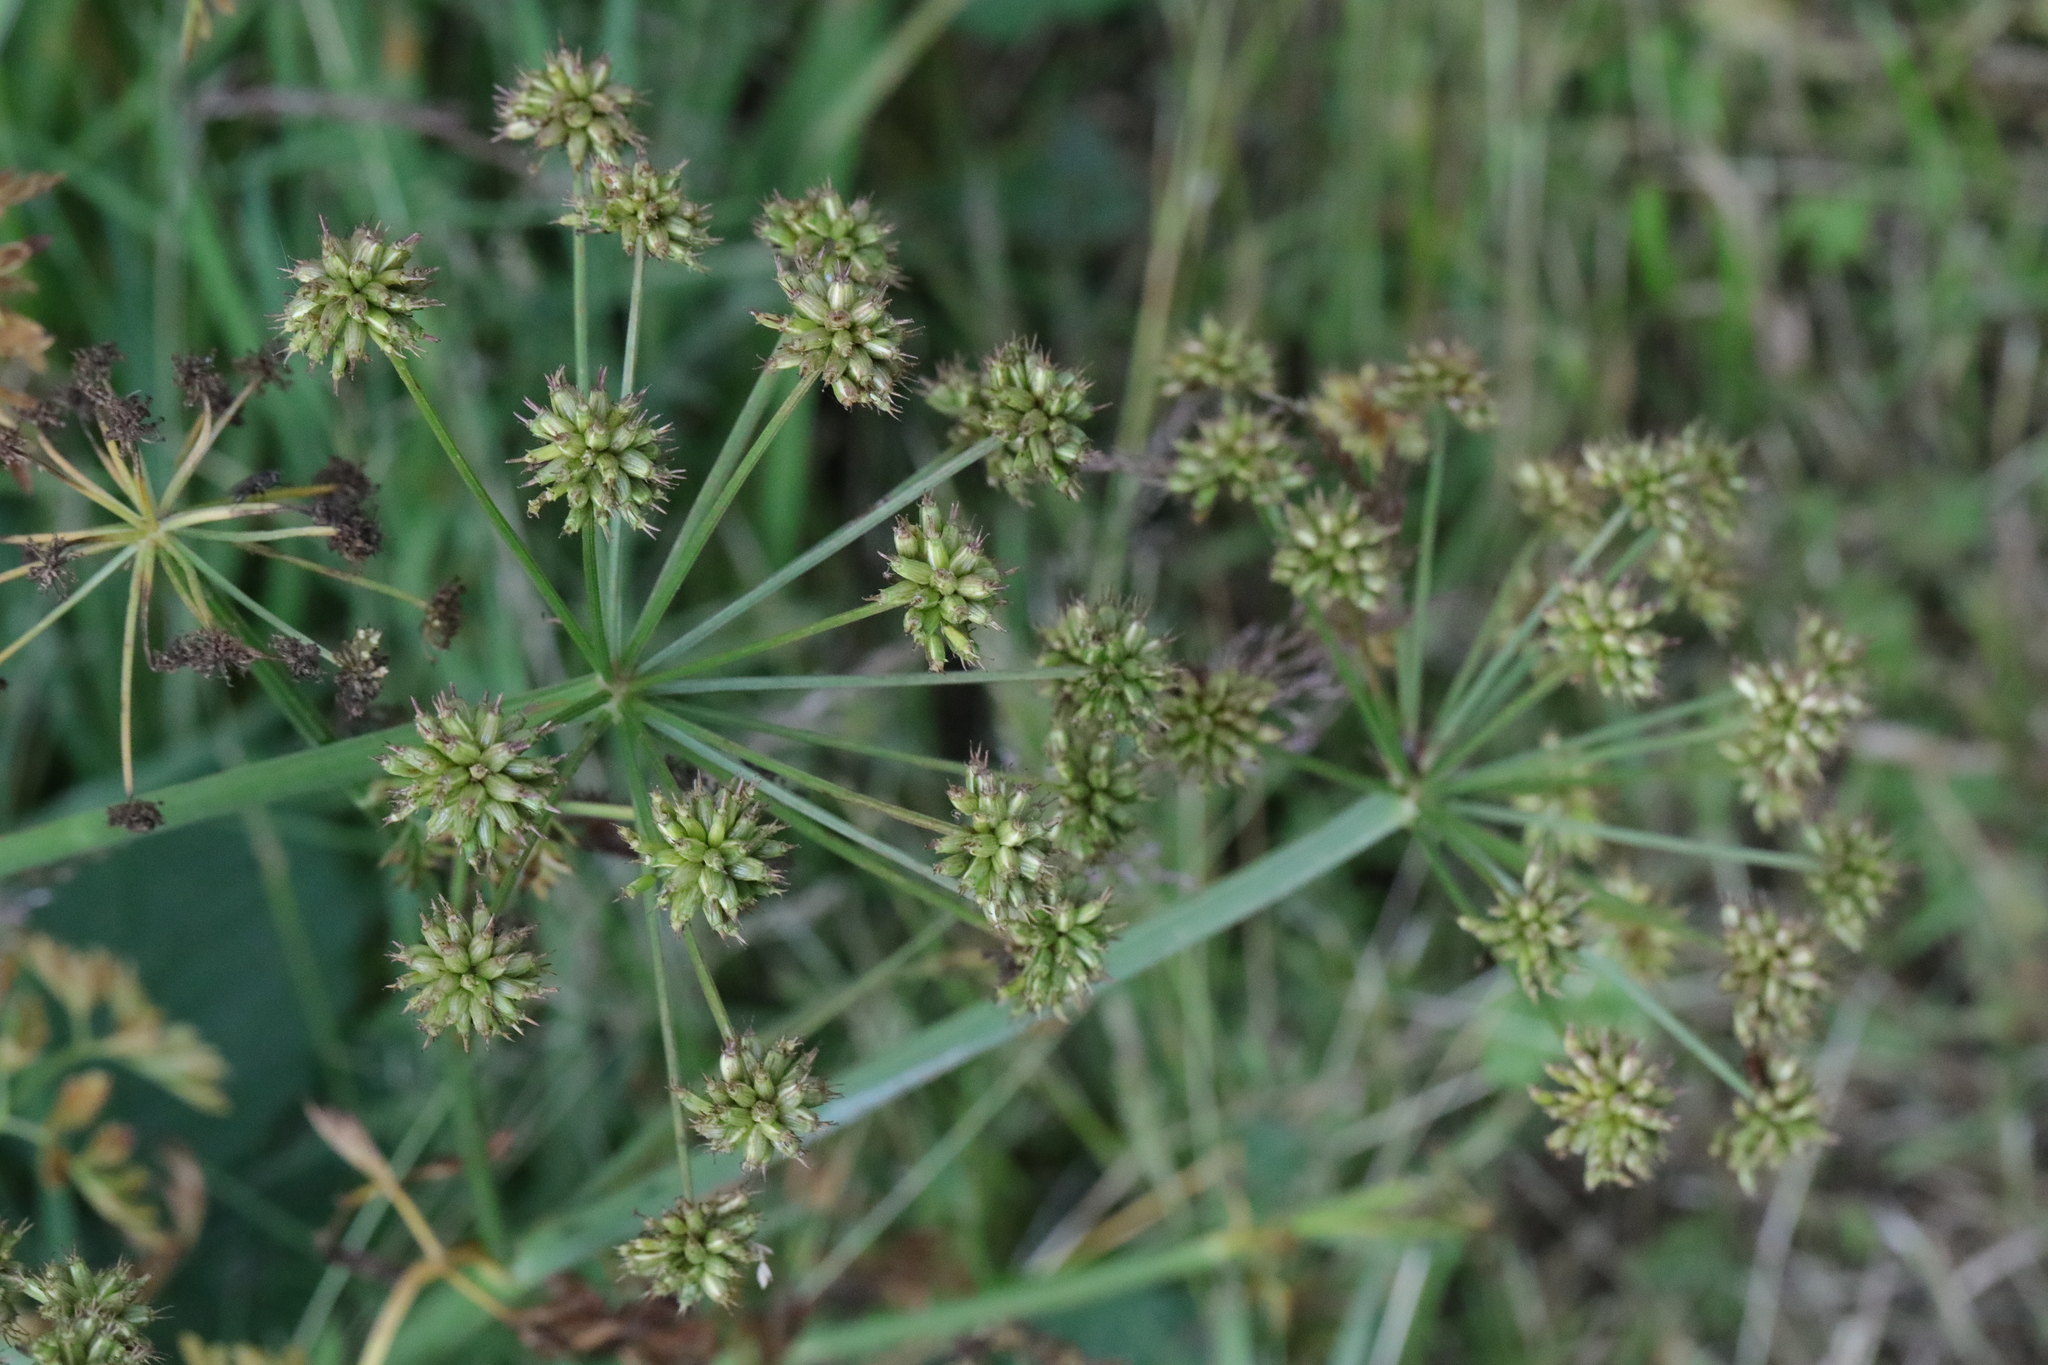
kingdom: Plantae
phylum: Tracheophyta
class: Magnoliopsida
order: Apiales
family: Apiaceae
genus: Oenanthe
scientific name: Oenanthe crocata
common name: Hemlock water-dropwort
